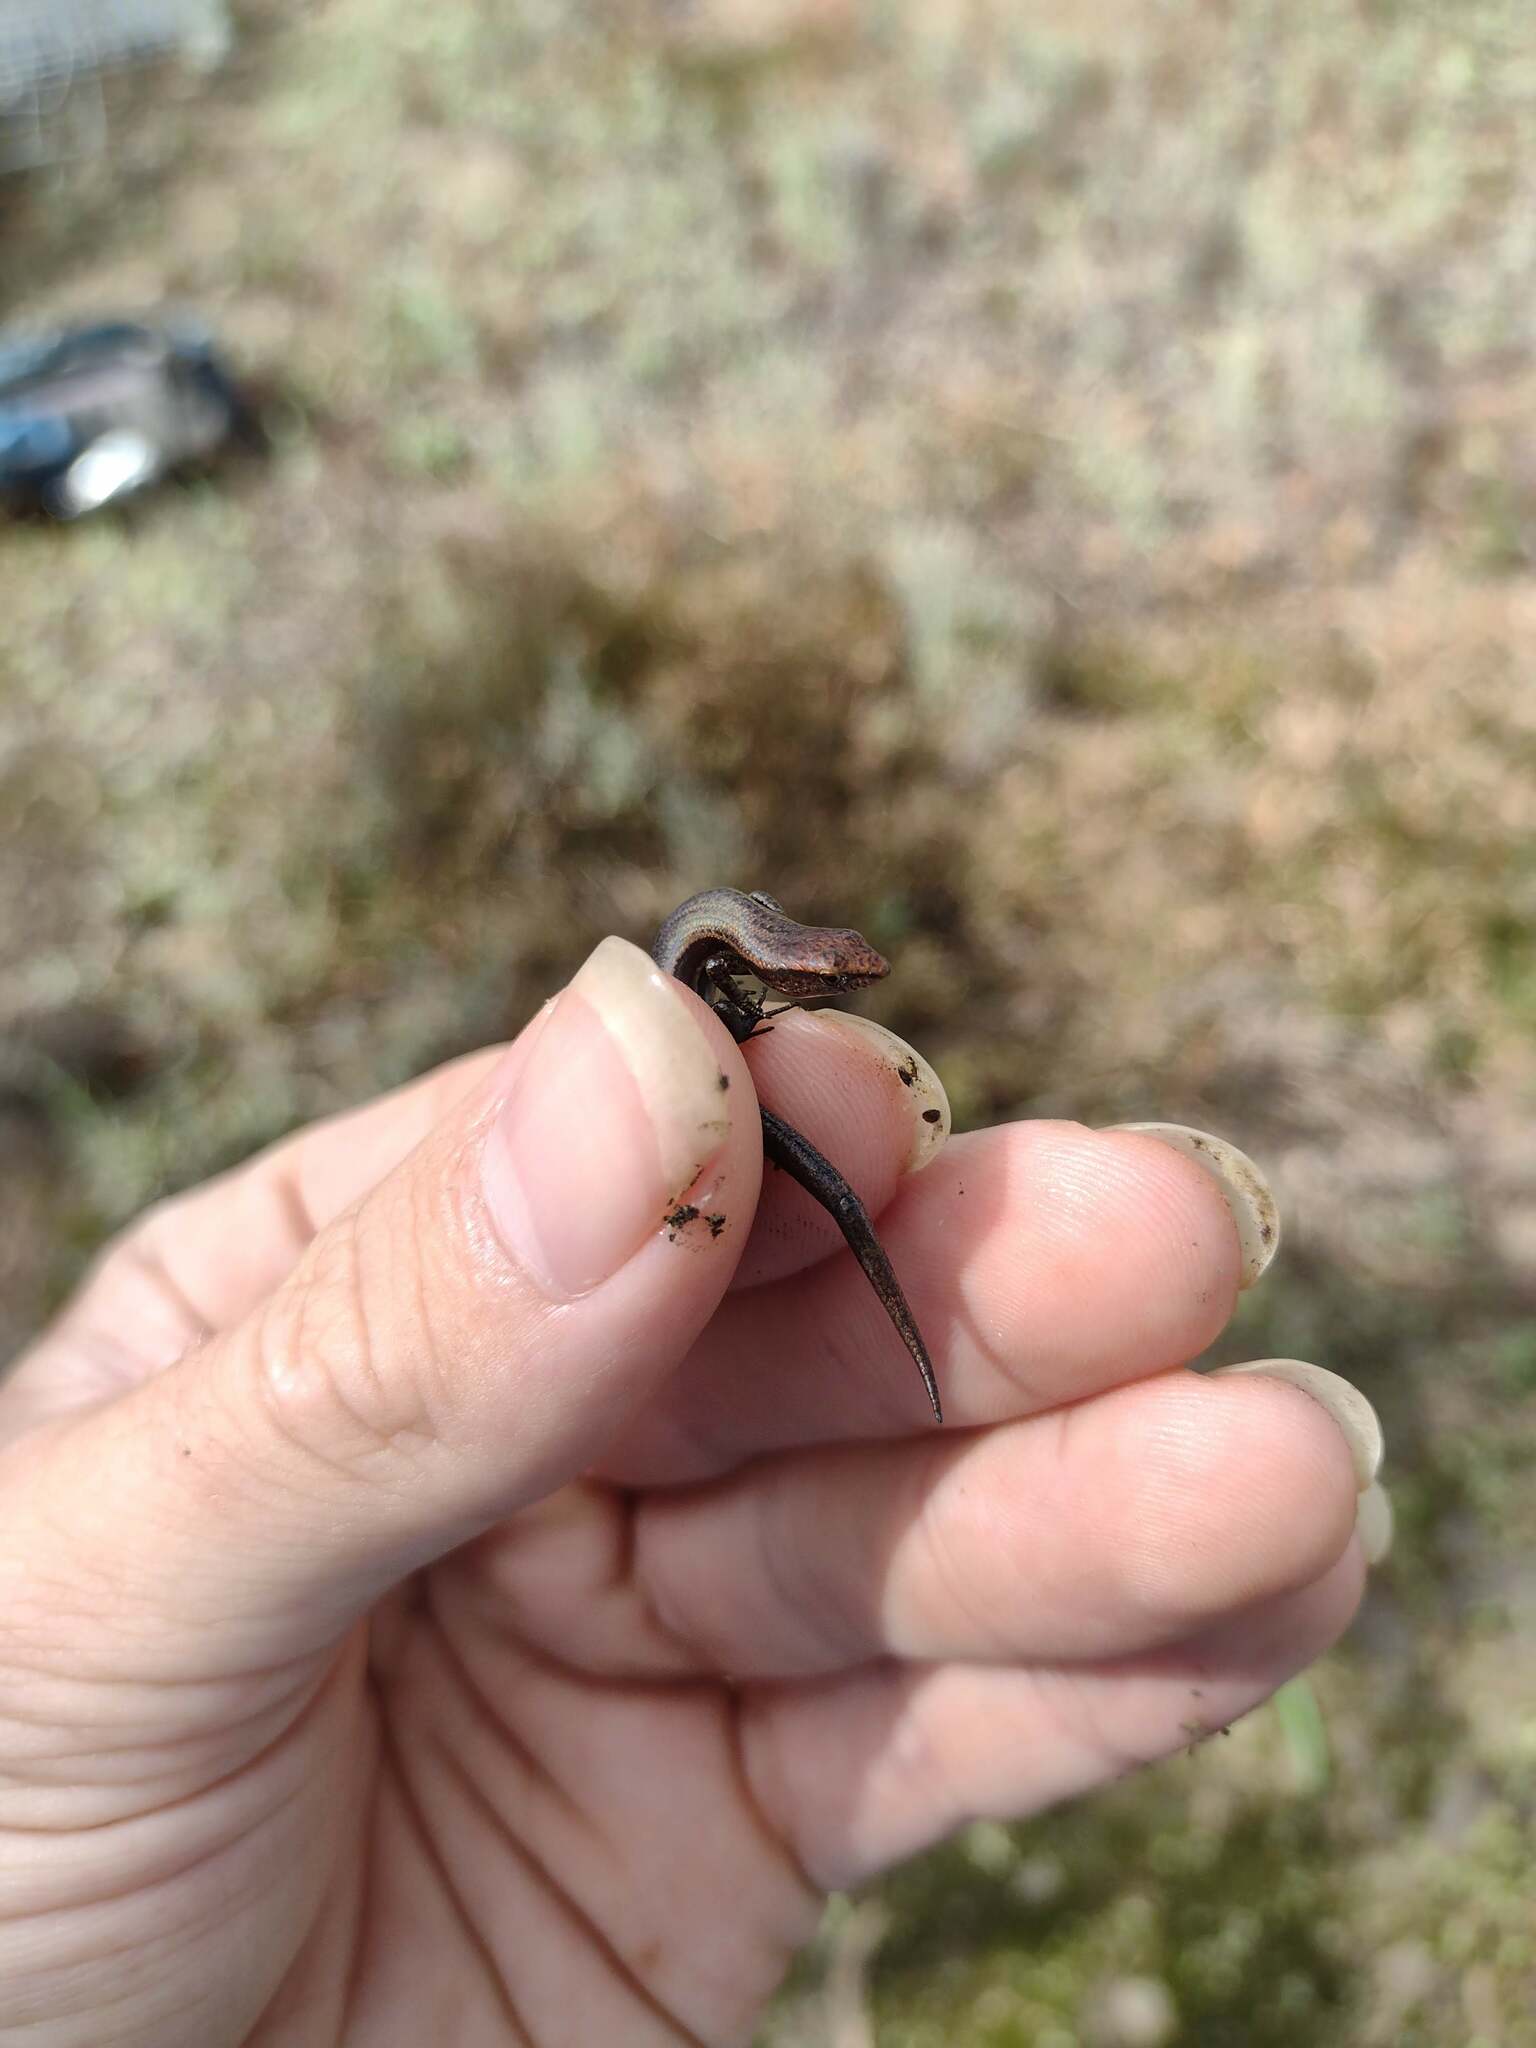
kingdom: Animalia
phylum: Chordata
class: Squamata
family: Scincidae
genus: Lampropholis
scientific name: Lampropholis delicata
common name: Plague skink
